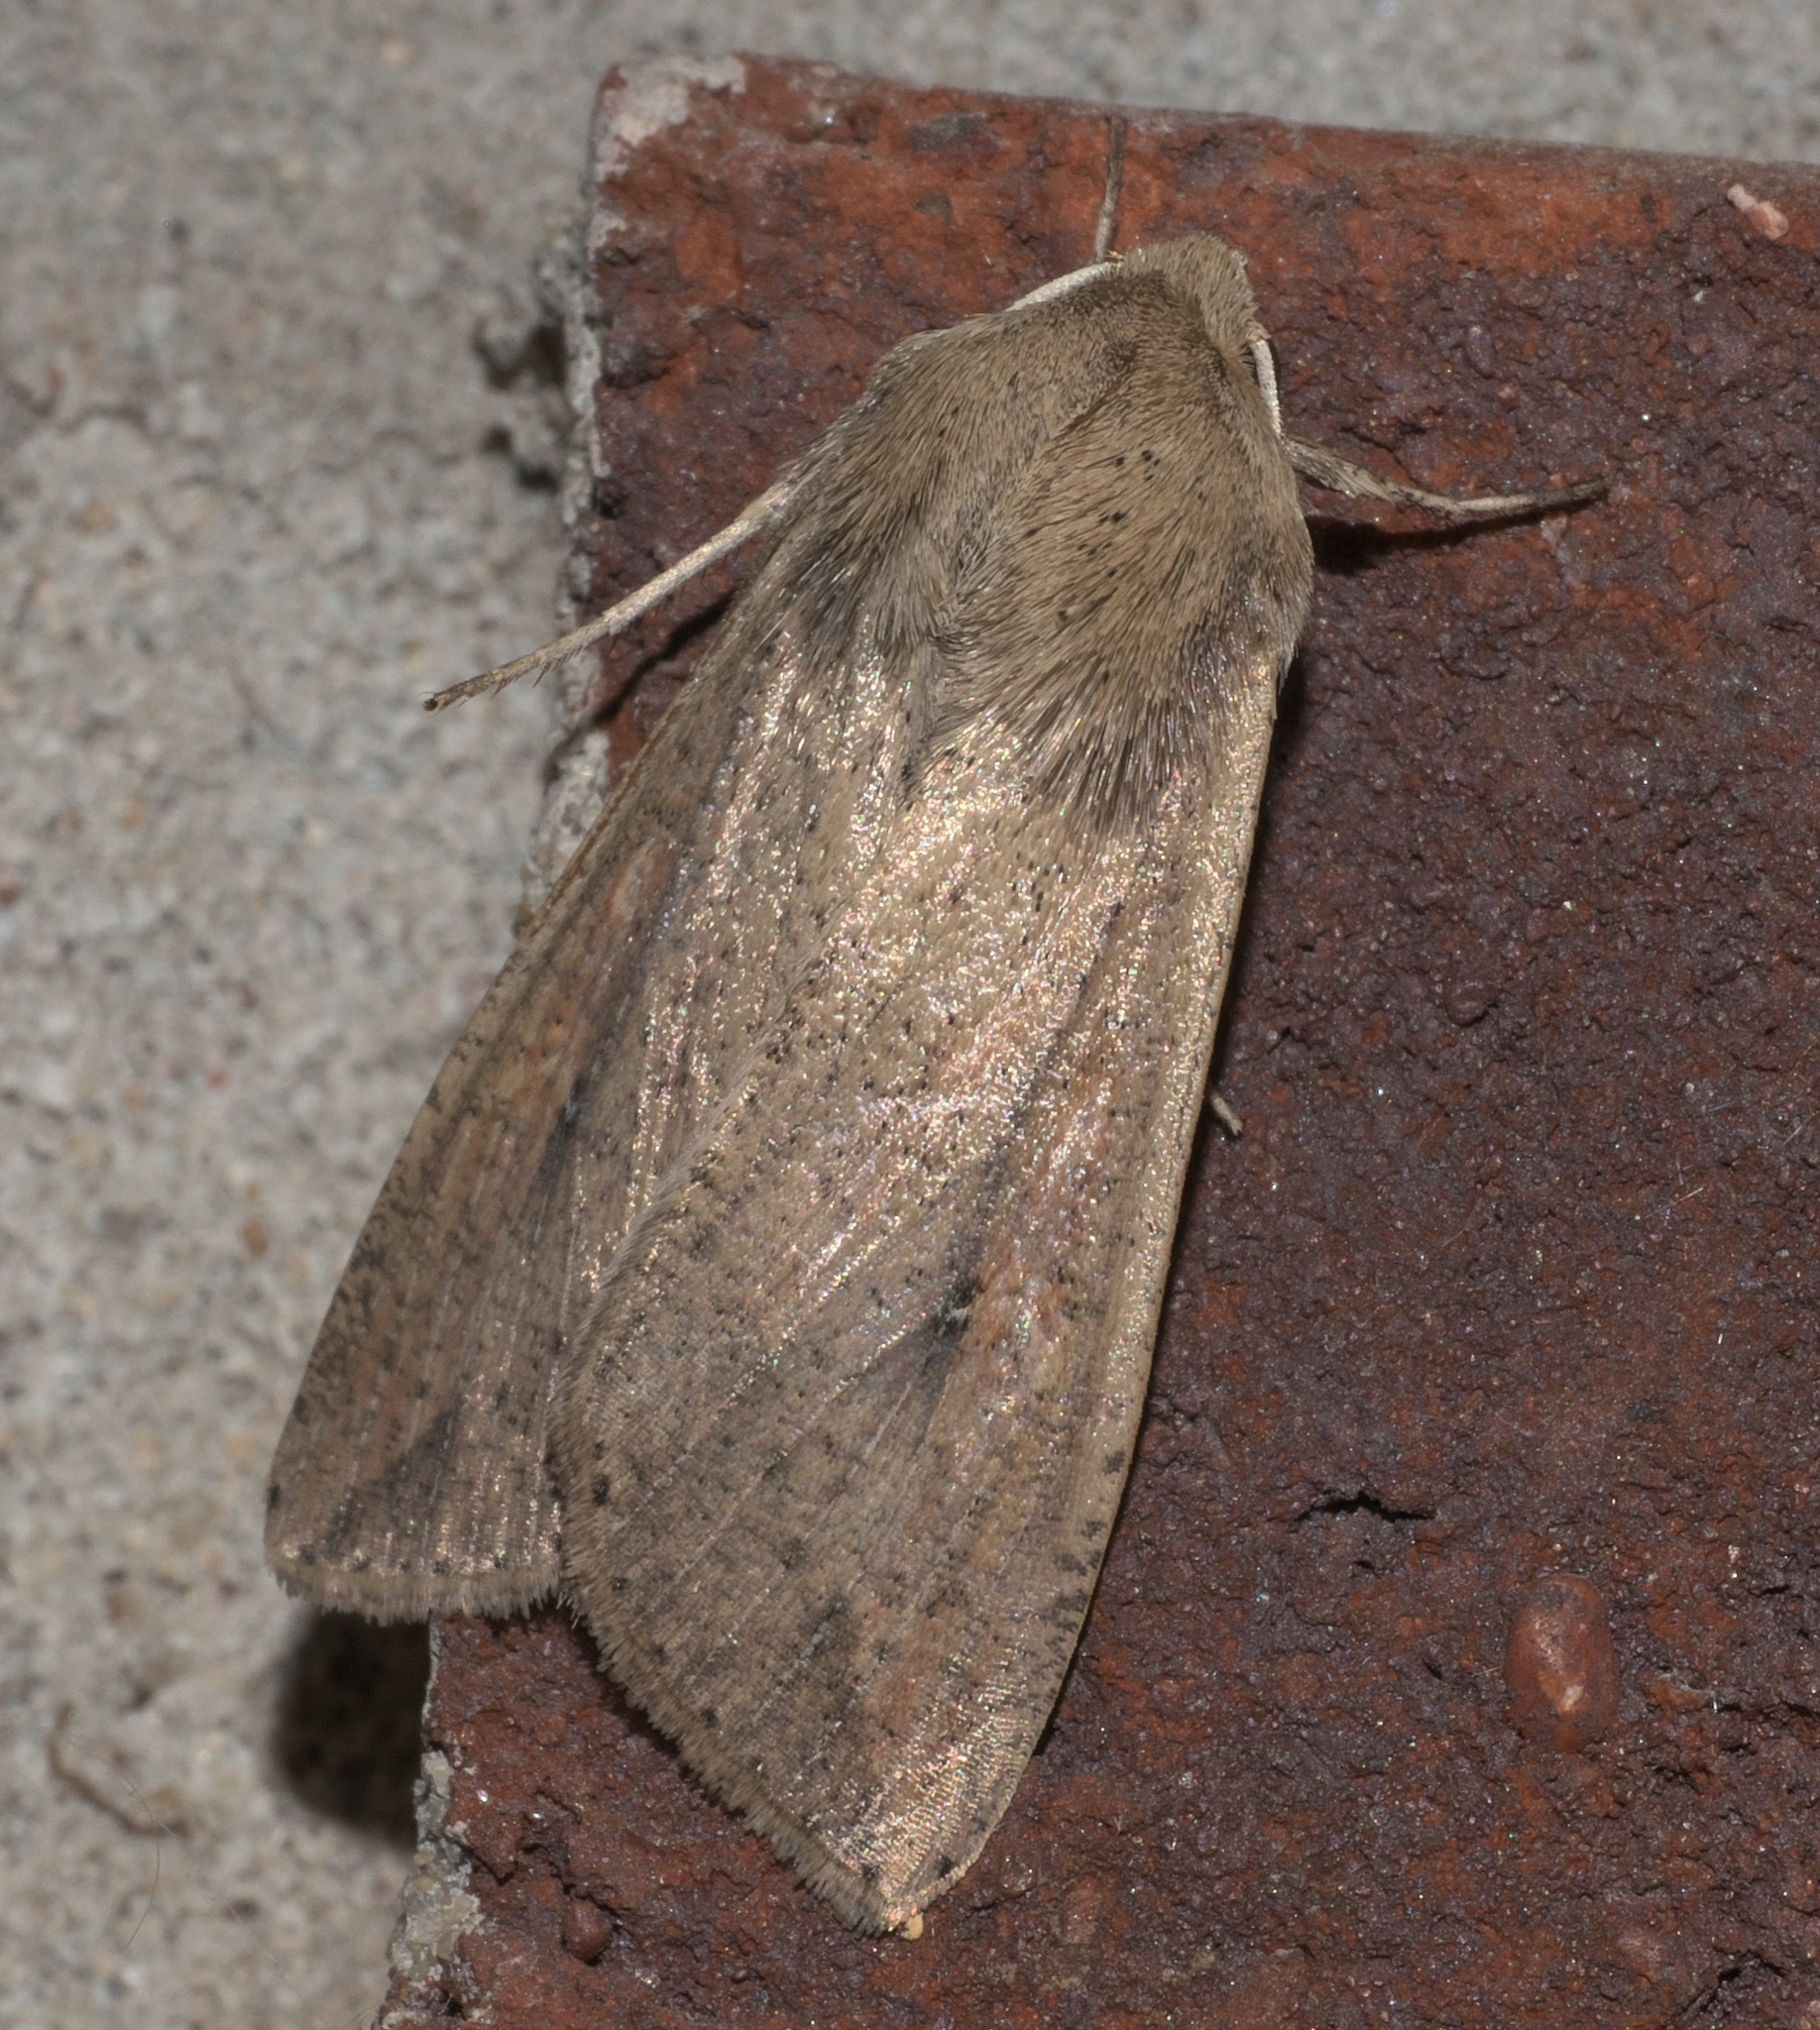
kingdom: Animalia
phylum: Arthropoda
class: Insecta
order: Lepidoptera
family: Noctuidae
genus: Mythimna
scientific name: Mythimna unipuncta
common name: White-speck
